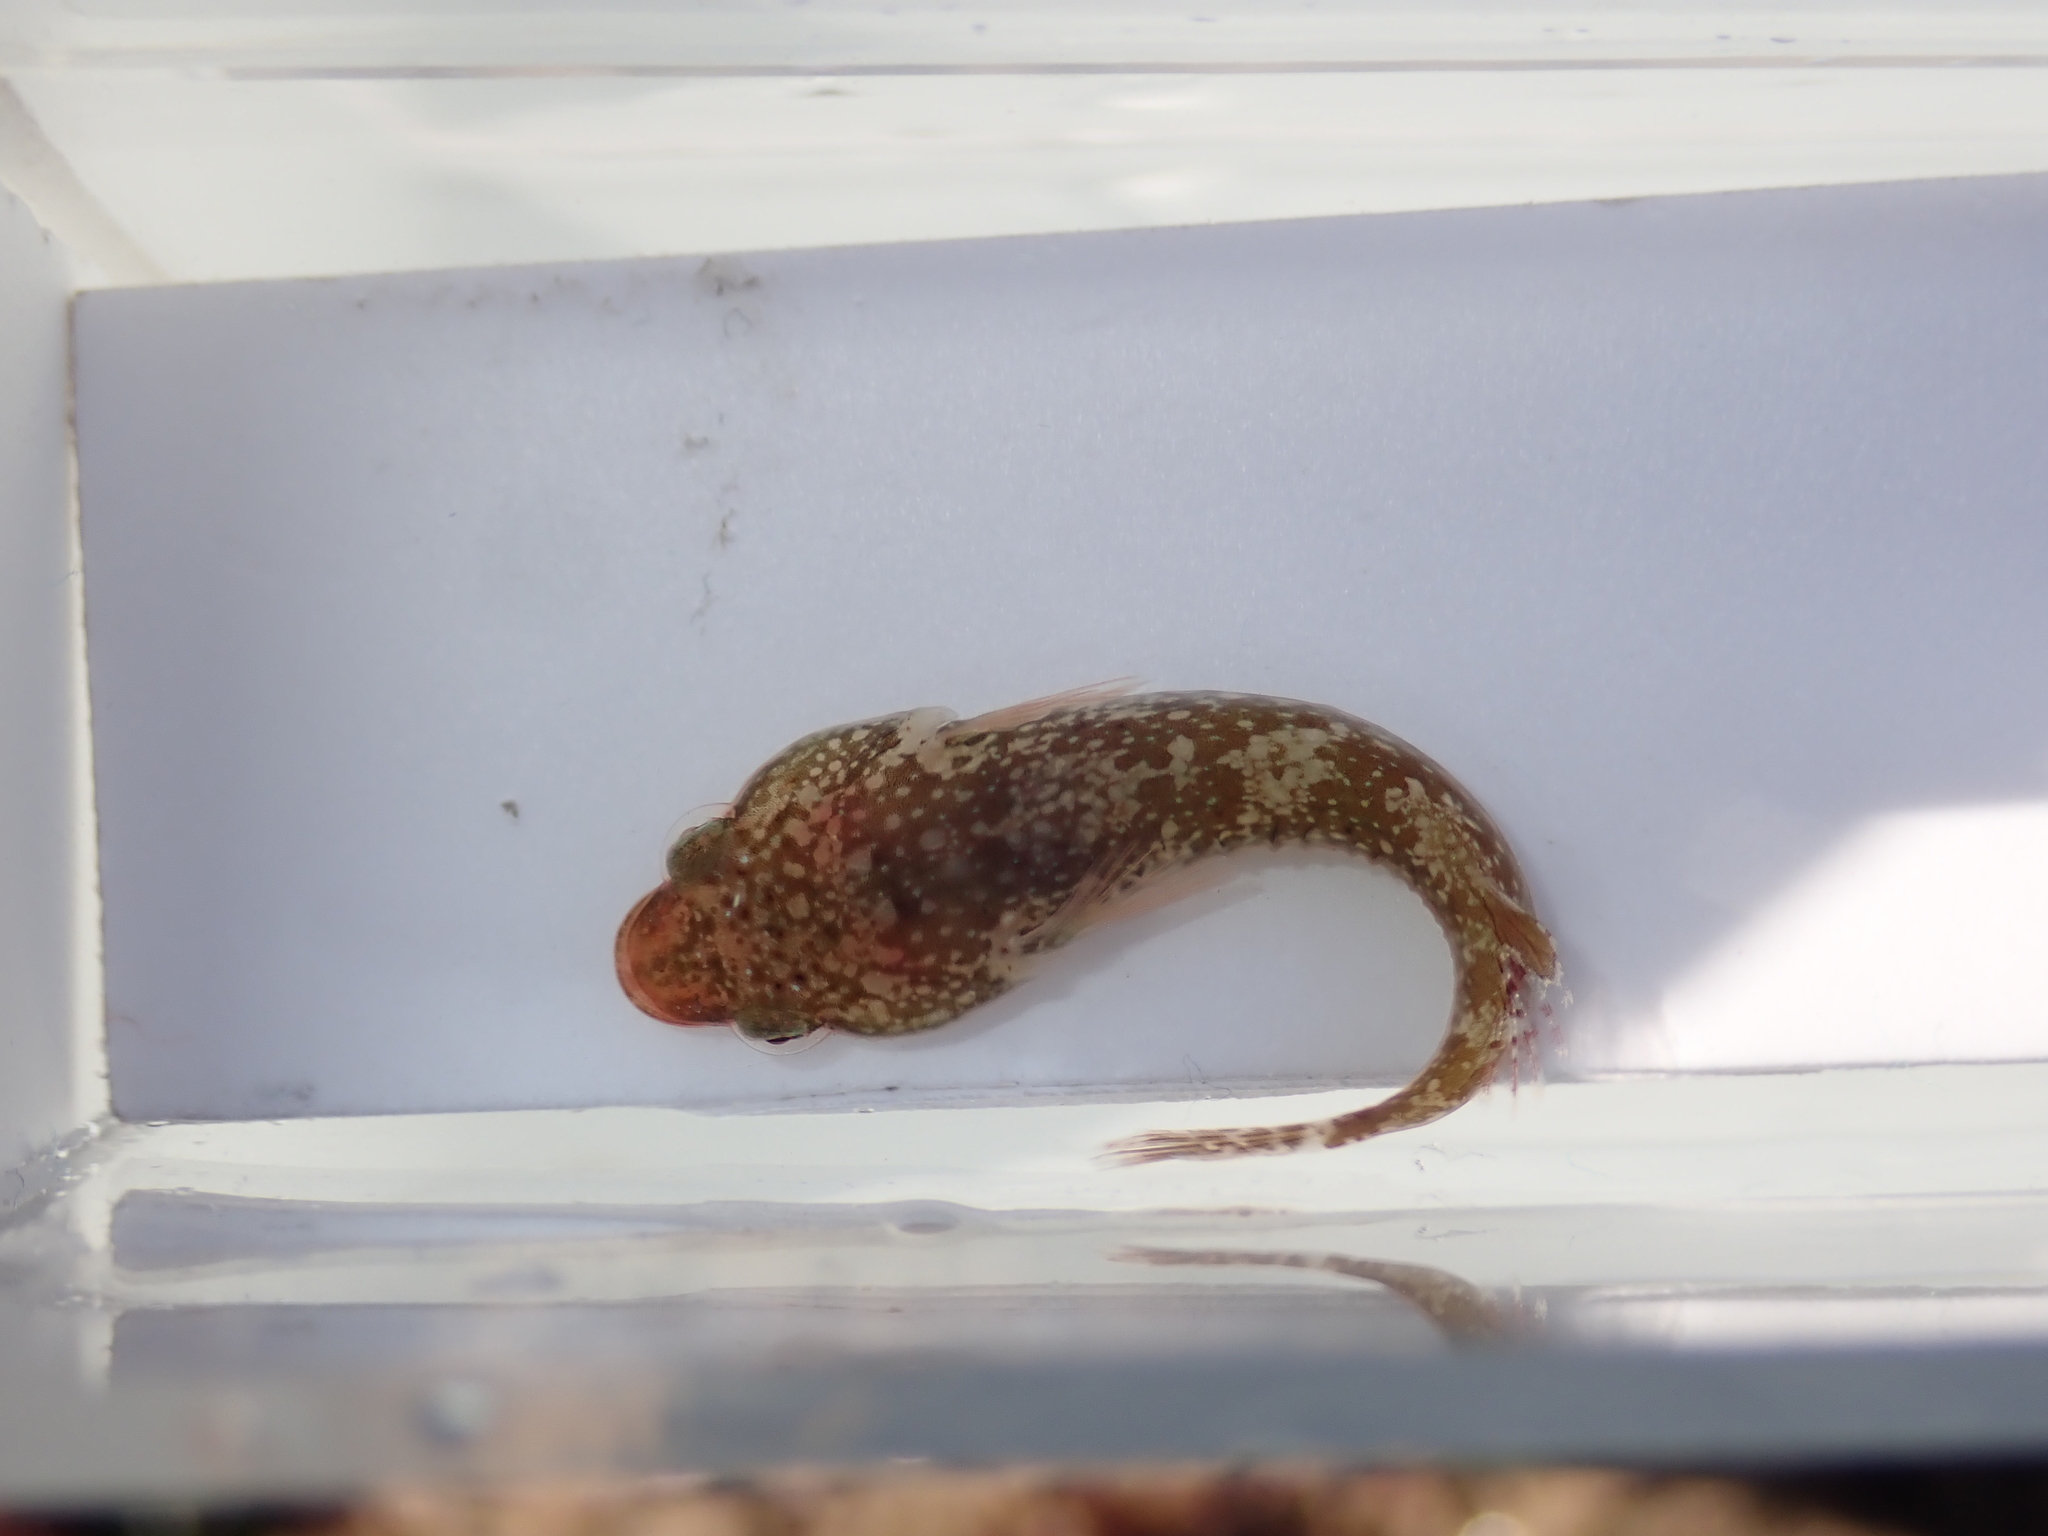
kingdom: Animalia
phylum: Chordata
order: Gobiesociformes
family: Gobiesocidae
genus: Apletodon
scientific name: Apletodon dentatus
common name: Small-headed clingfish
